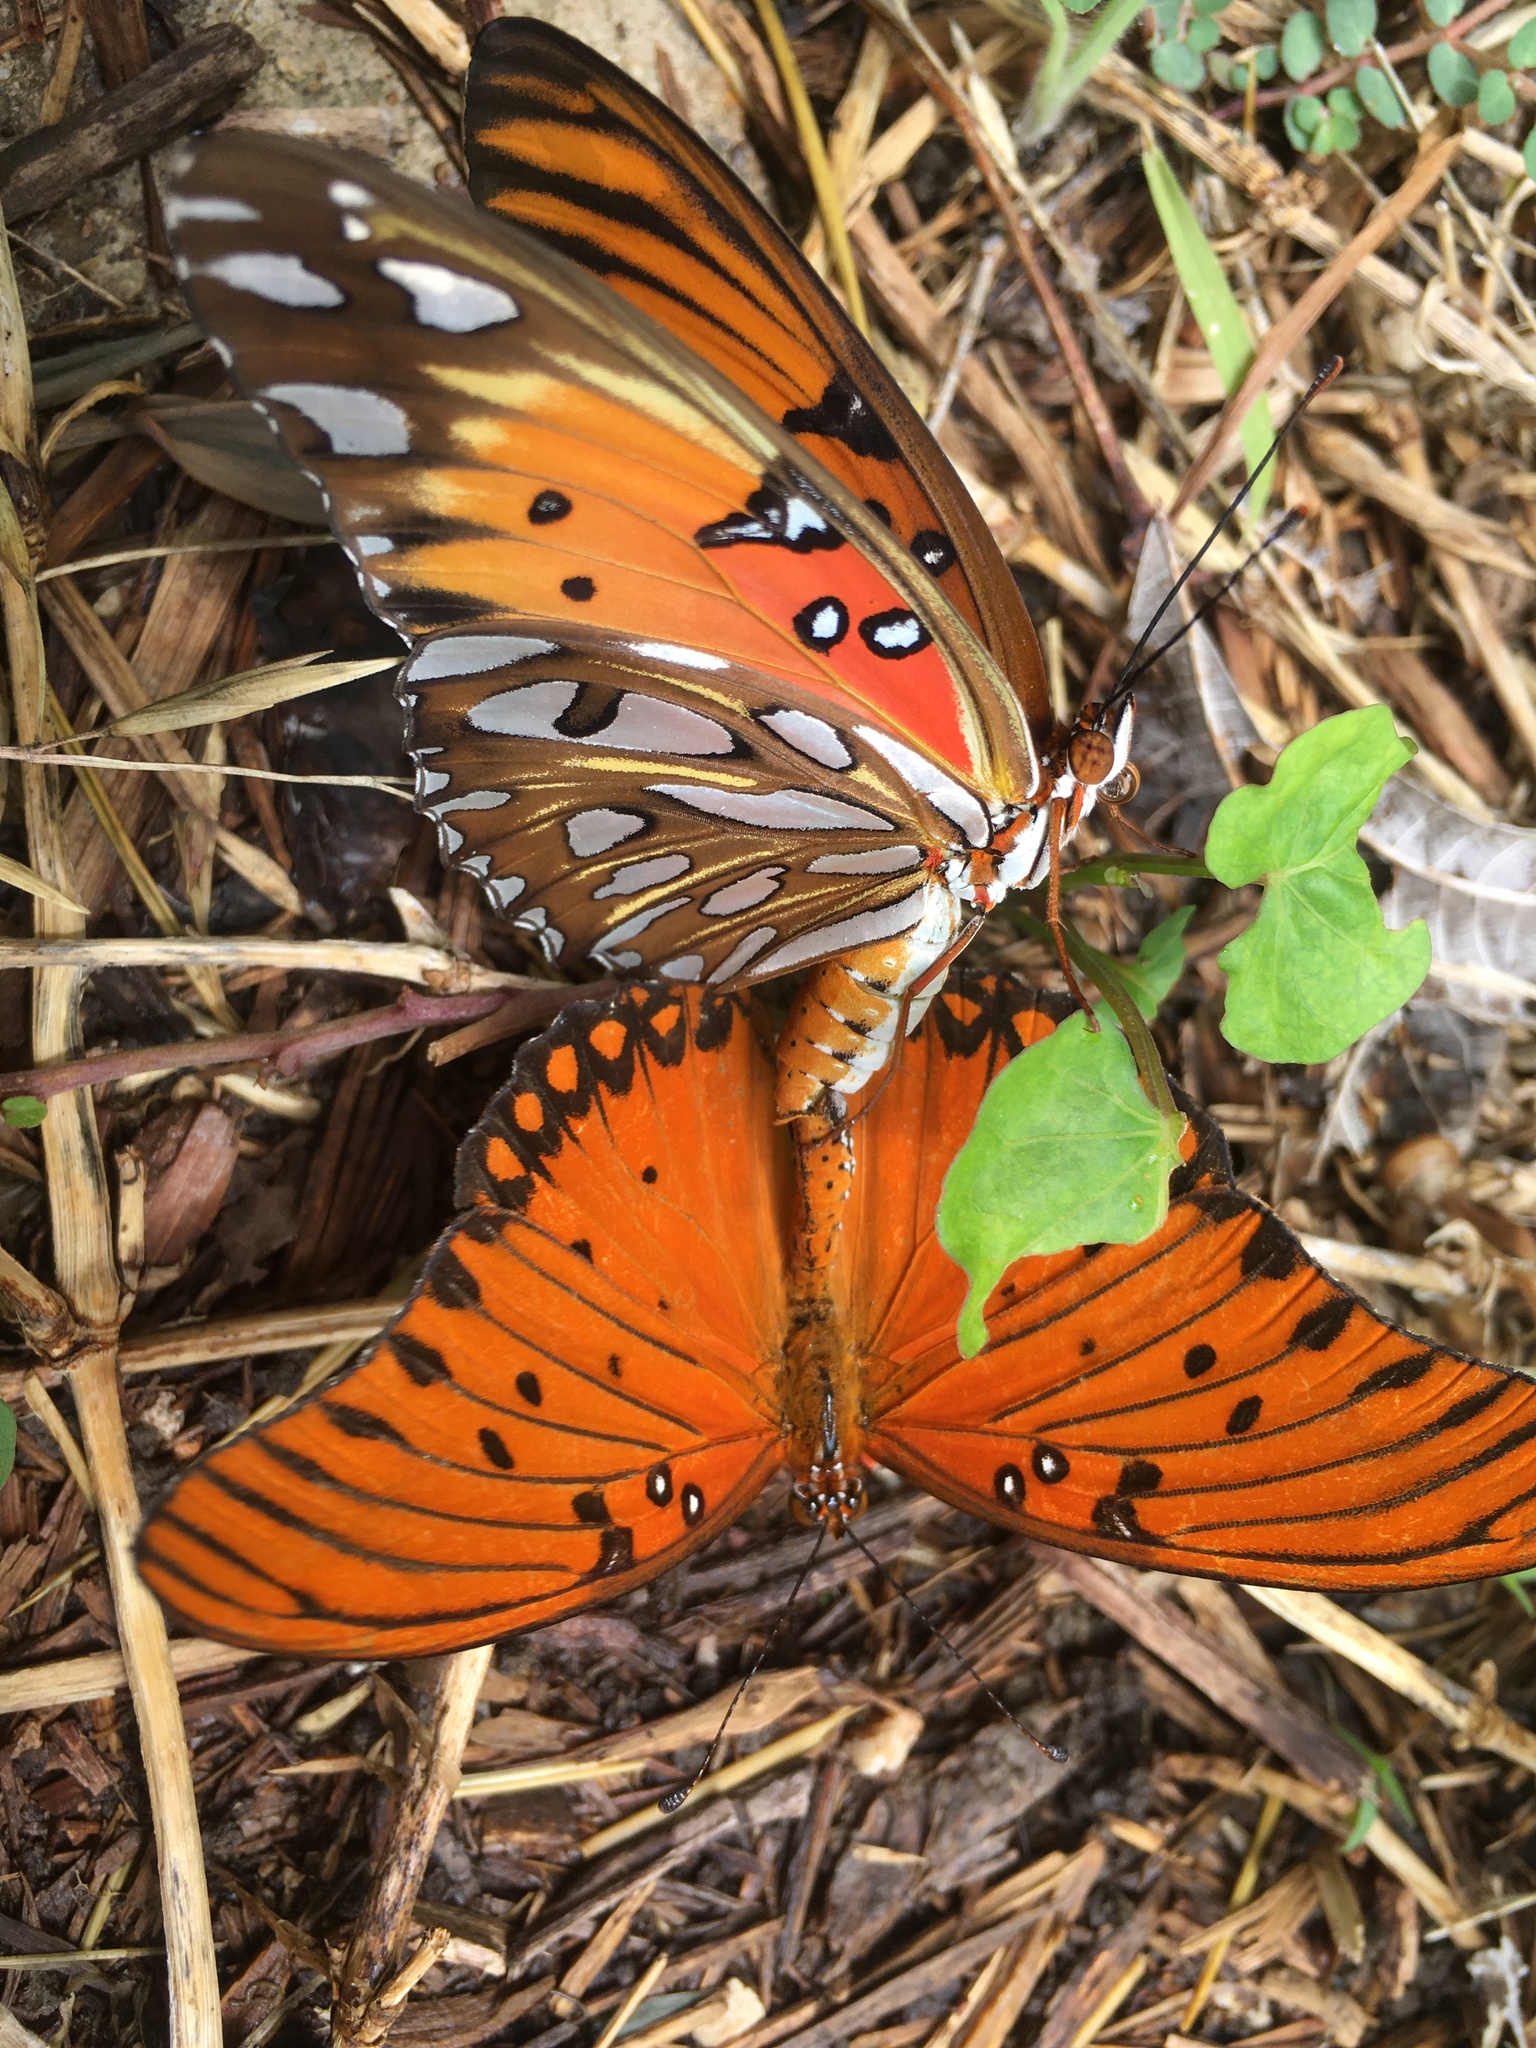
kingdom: Animalia
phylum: Arthropoda
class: Insecta
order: Lepidoptera
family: Nymphalidae
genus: Dione
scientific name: Dione vanillae
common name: Gulf fritillary
